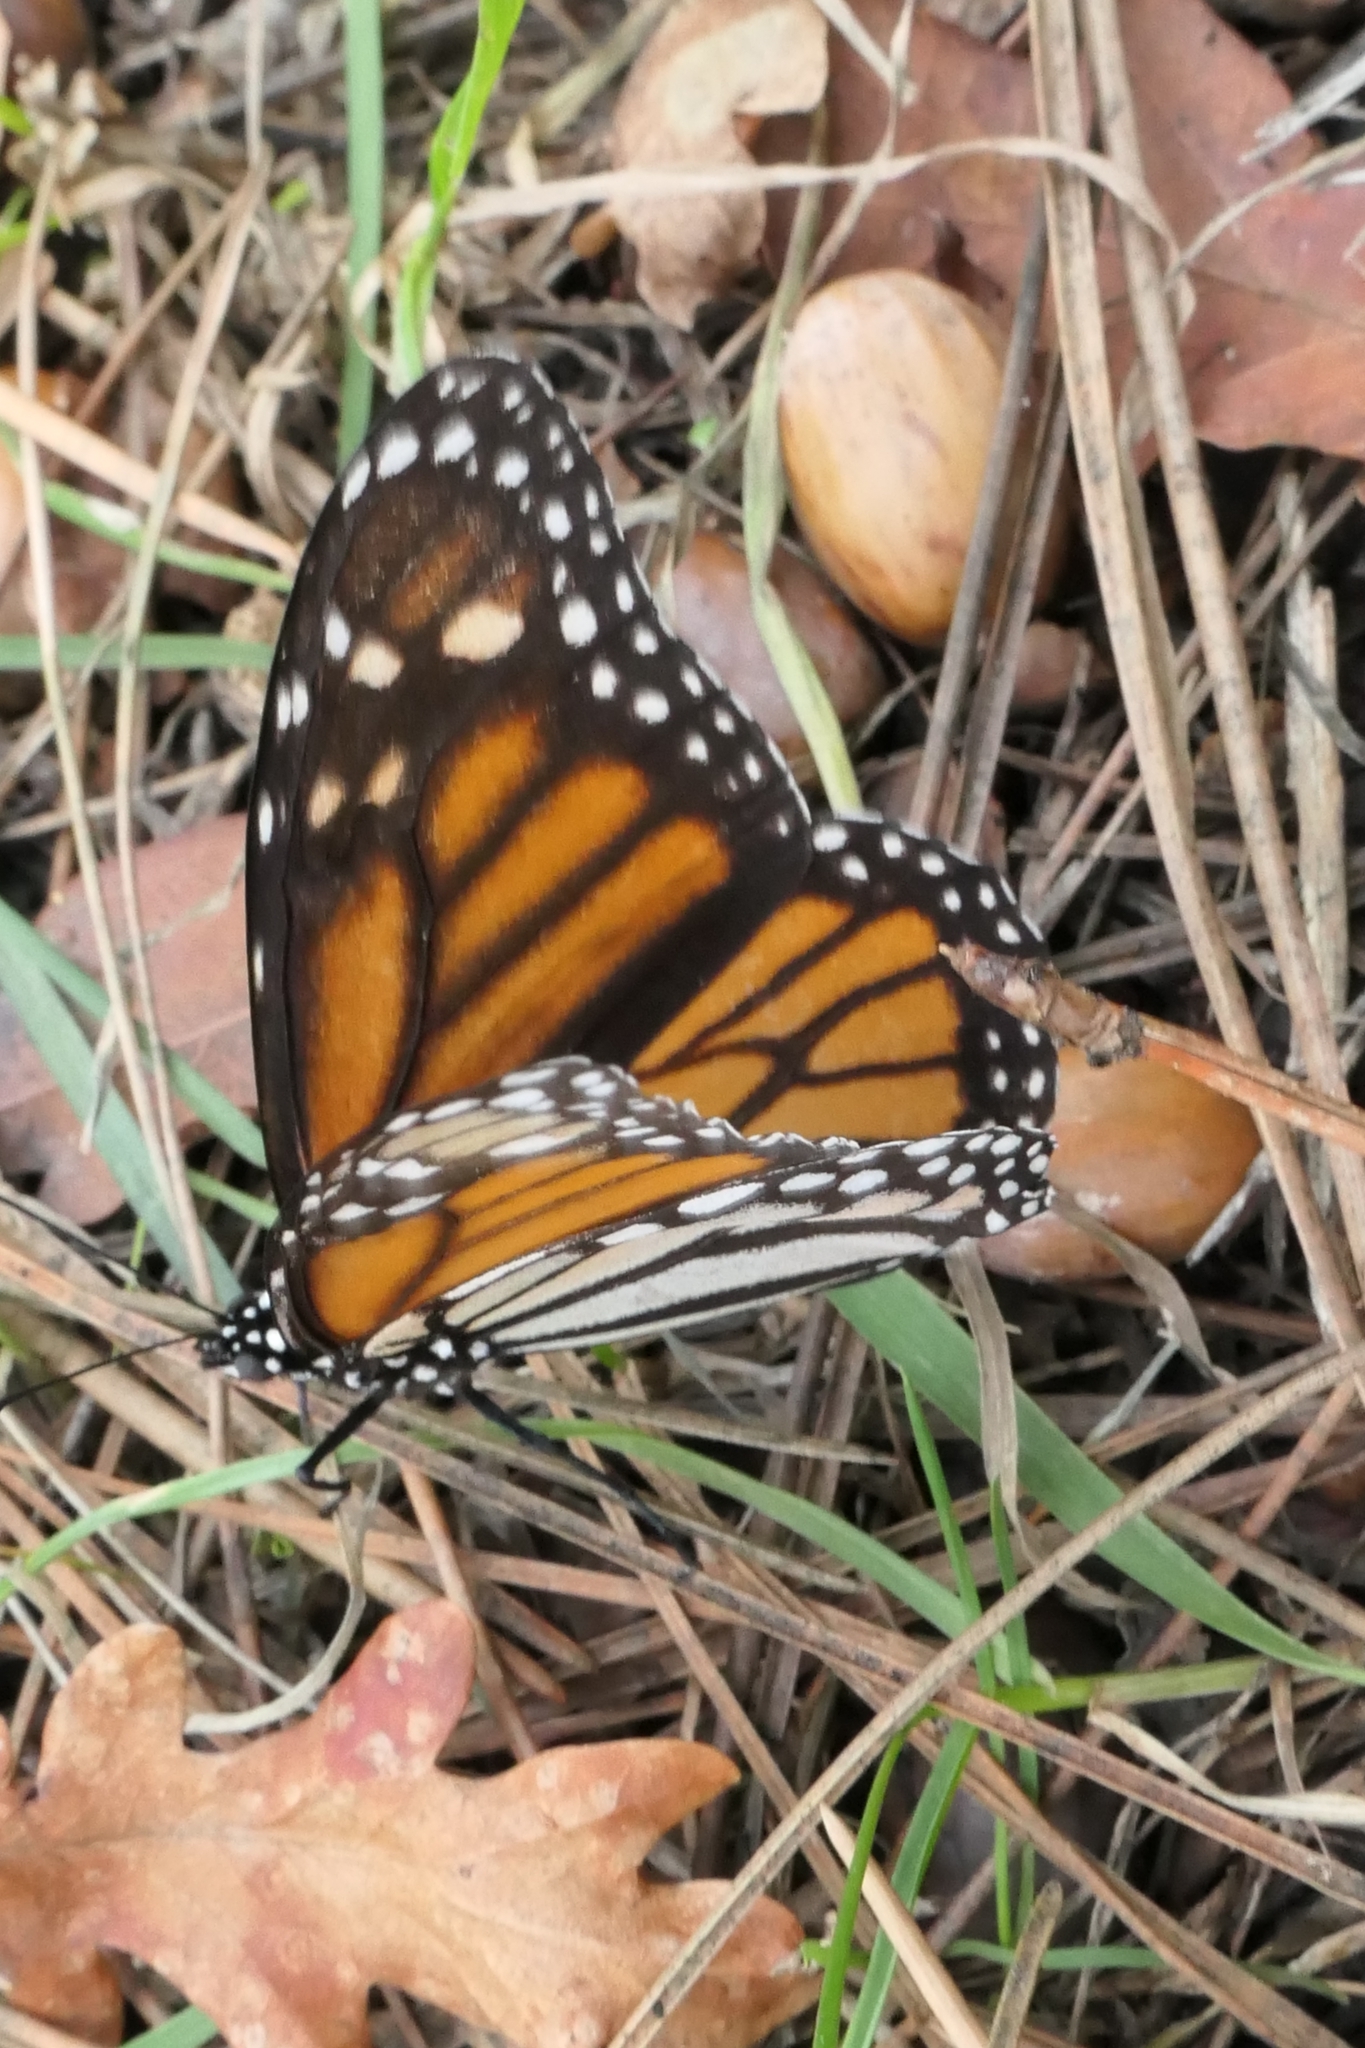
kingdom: Animalia
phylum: Arthropoda
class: Insecta
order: Lepidoptera
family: Nymphalidae
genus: Danaus
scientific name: Danaus plexippus
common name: Monarch
